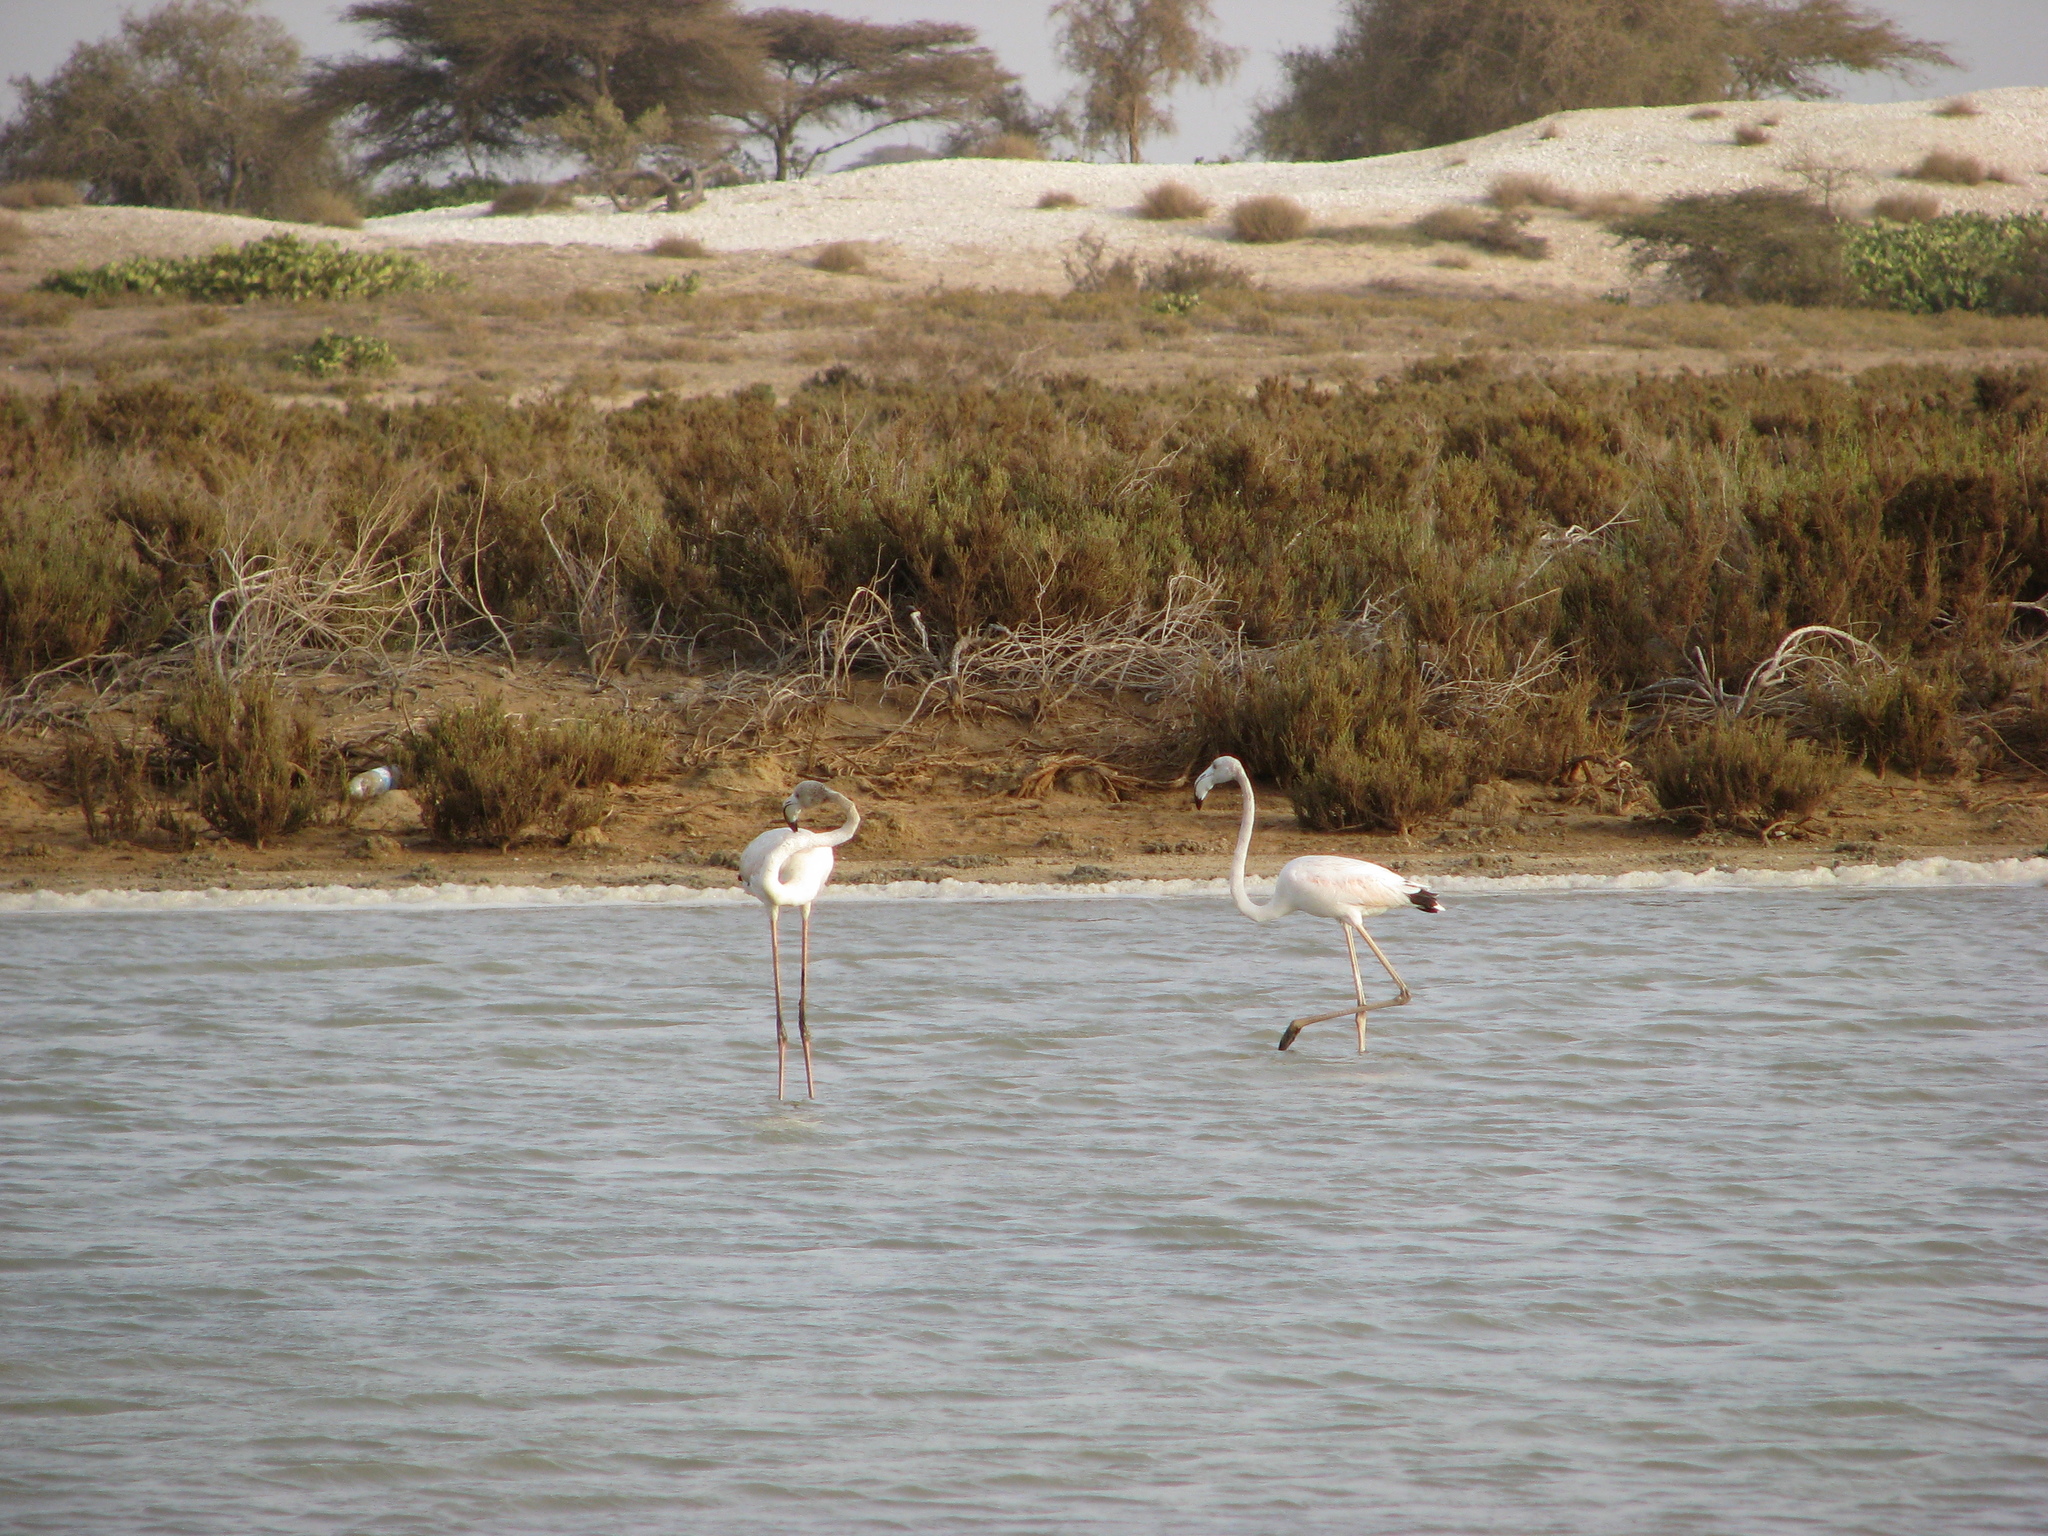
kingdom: Animalia
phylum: Chordata
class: Aves
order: Phoenicopteriformes
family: Phoenicopteridae
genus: Phoenicopterus
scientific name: Phoenicopterus roseus
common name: Greater flamingo
